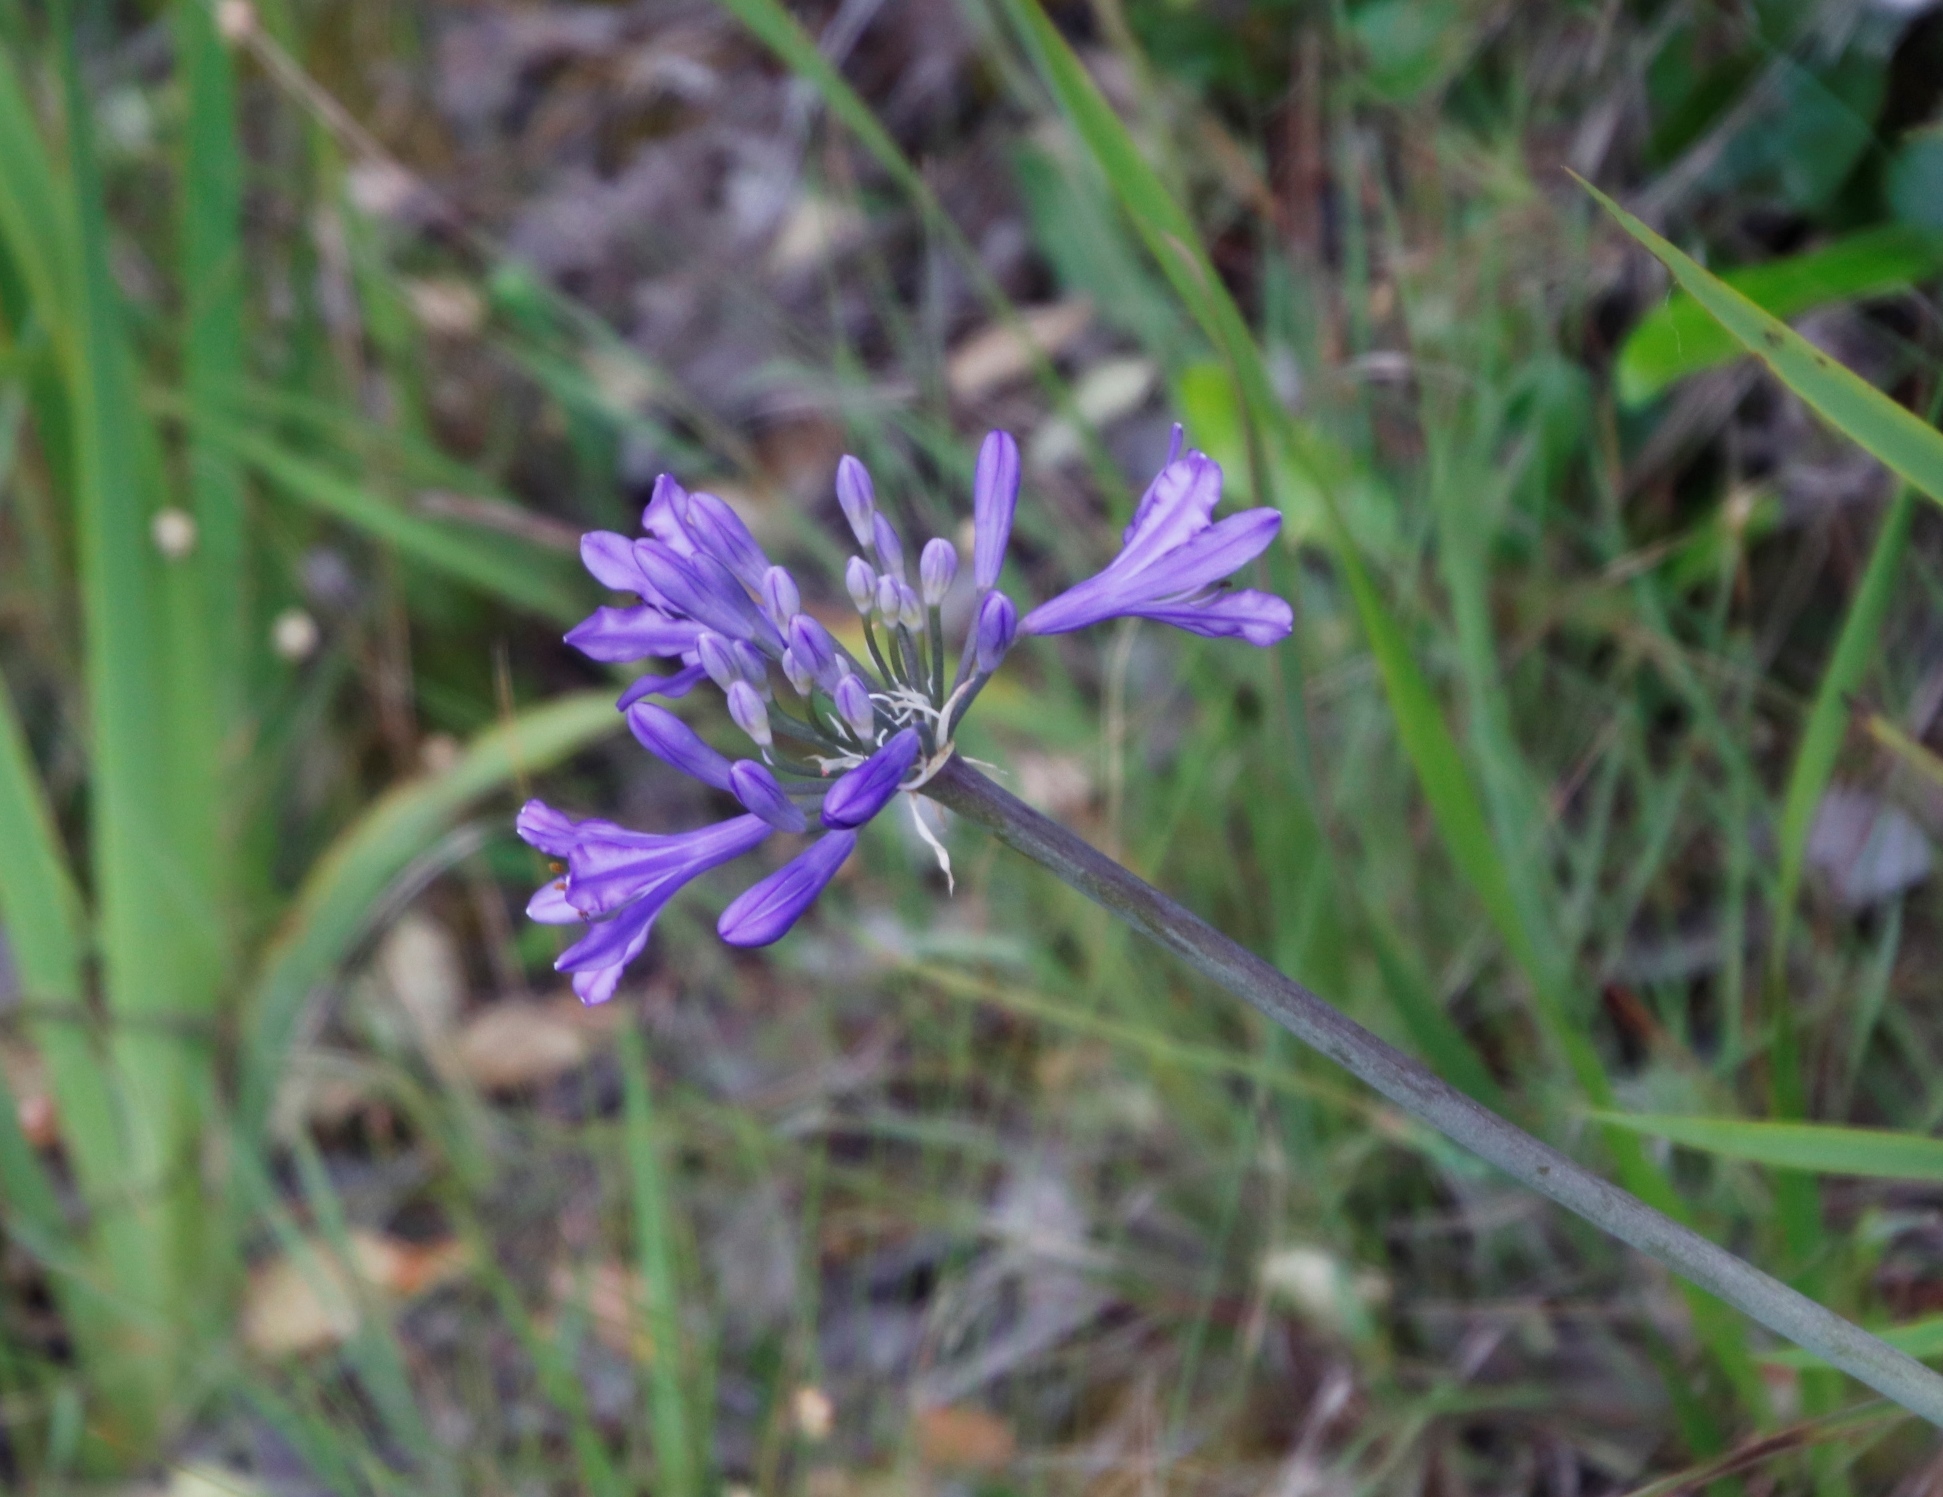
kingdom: Plantae
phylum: Tracheophyta
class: Liliopsida
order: Asparagales
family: Amaryllidaceae
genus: Agapanthus
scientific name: Agapanthus africanus
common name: Lily-of-the-nile
